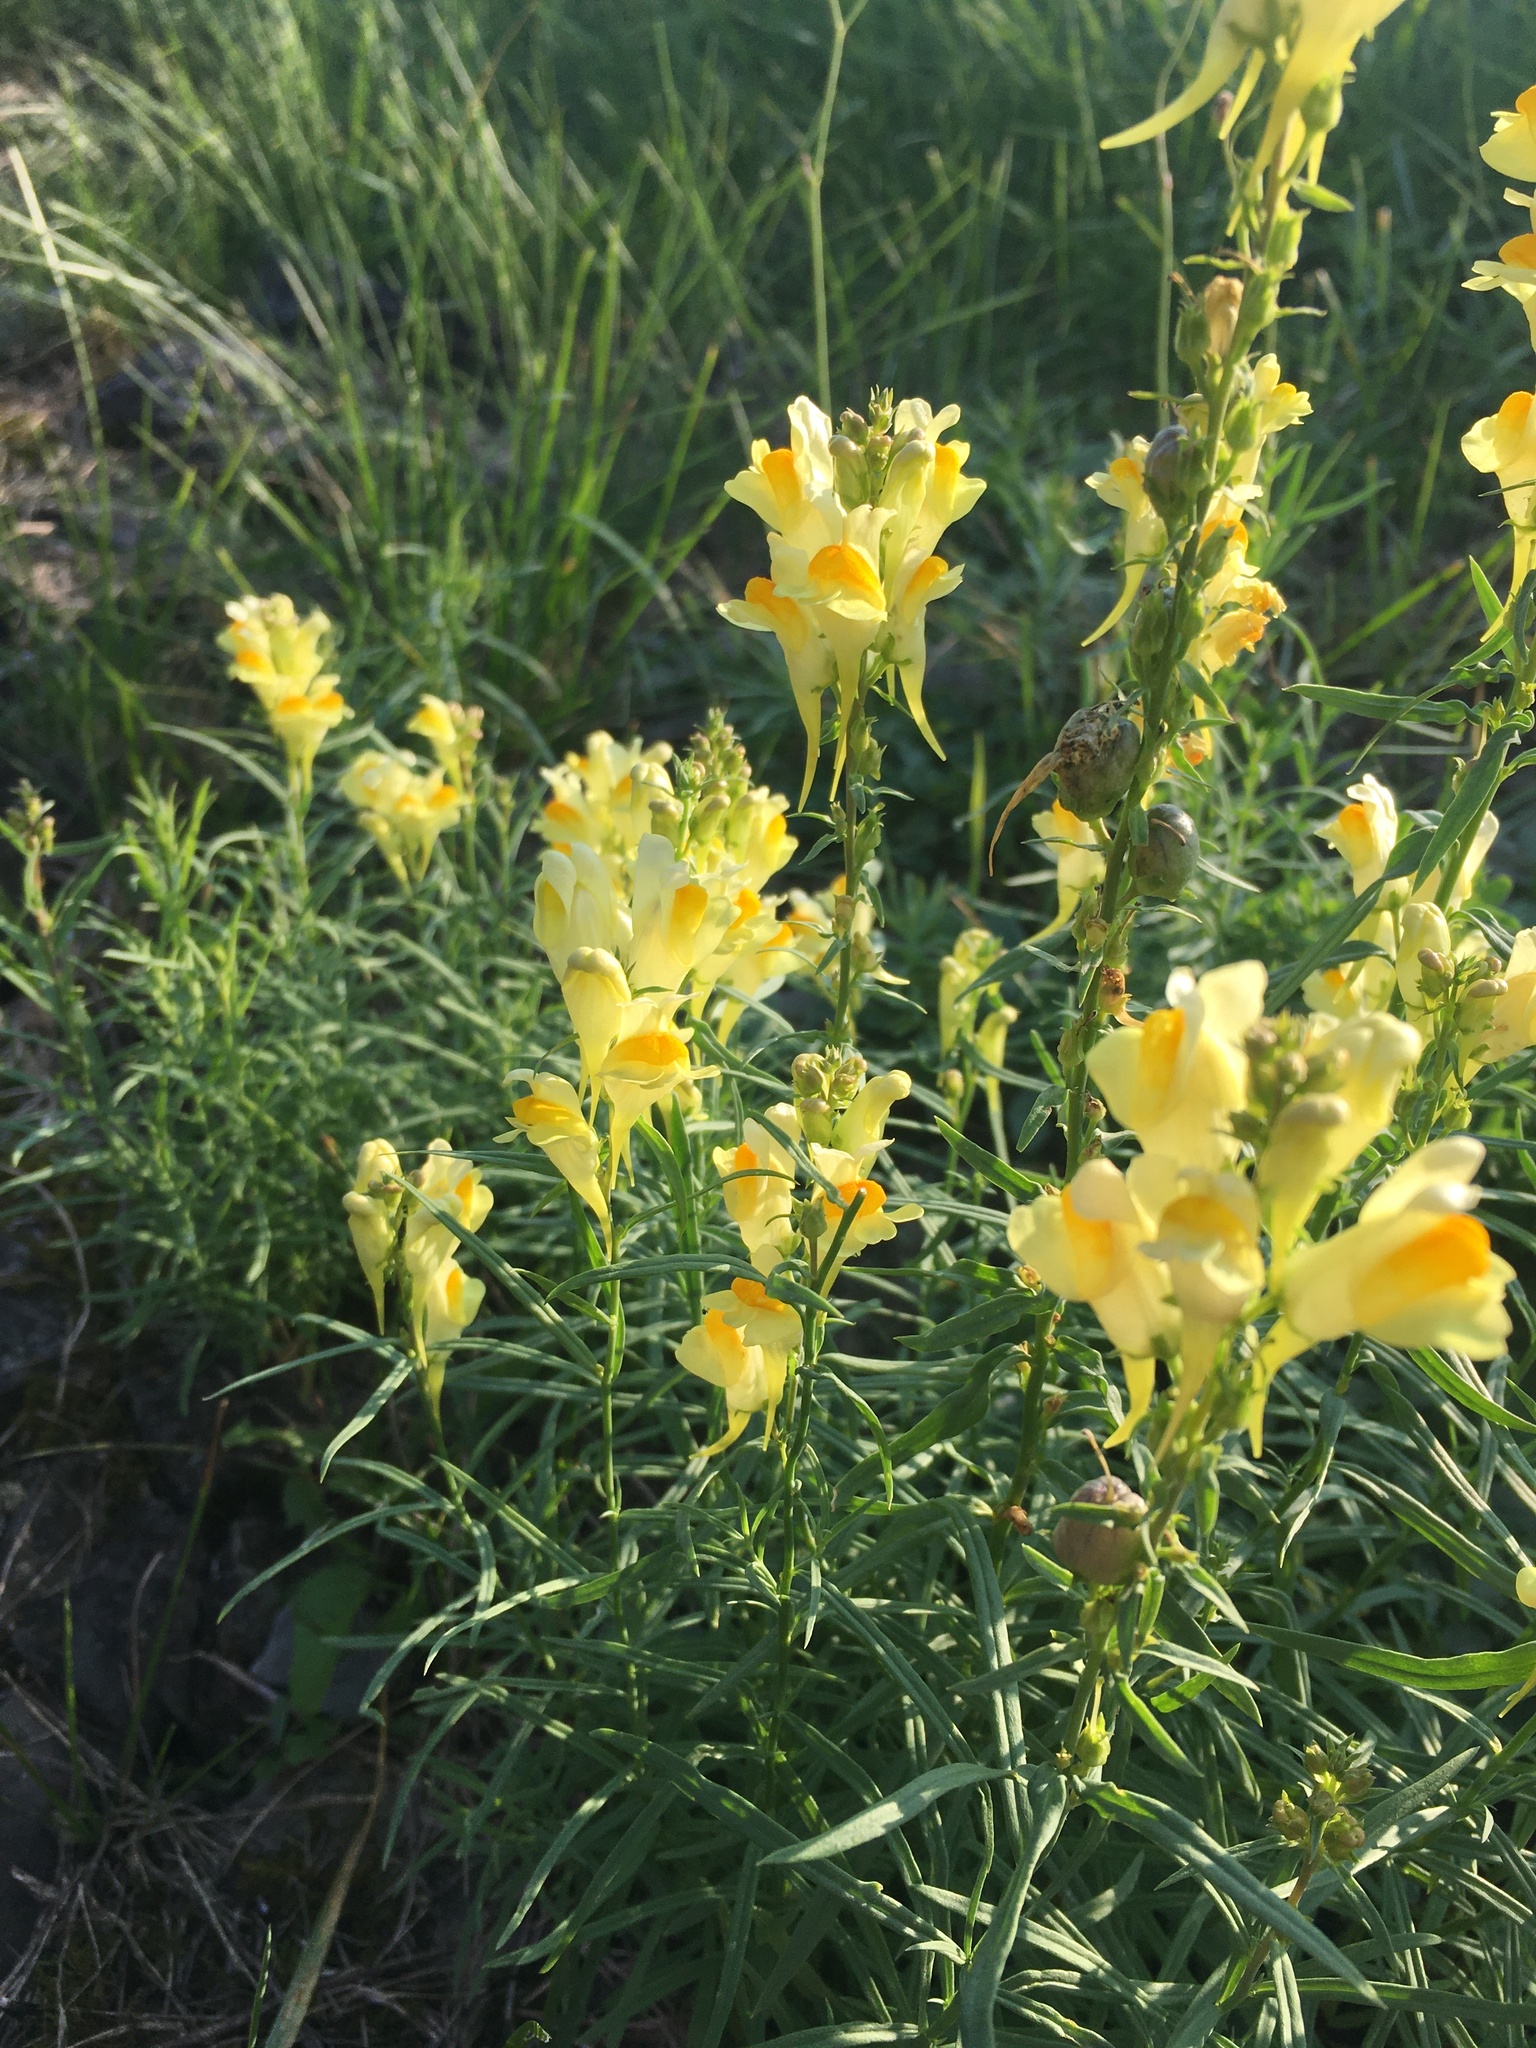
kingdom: Plantae
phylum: Tracheophyta
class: Magnoliopsida
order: Lamiales
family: Plantaginaceae
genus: Linaria
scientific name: Linaria vulgaris
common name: Butter and eggs
